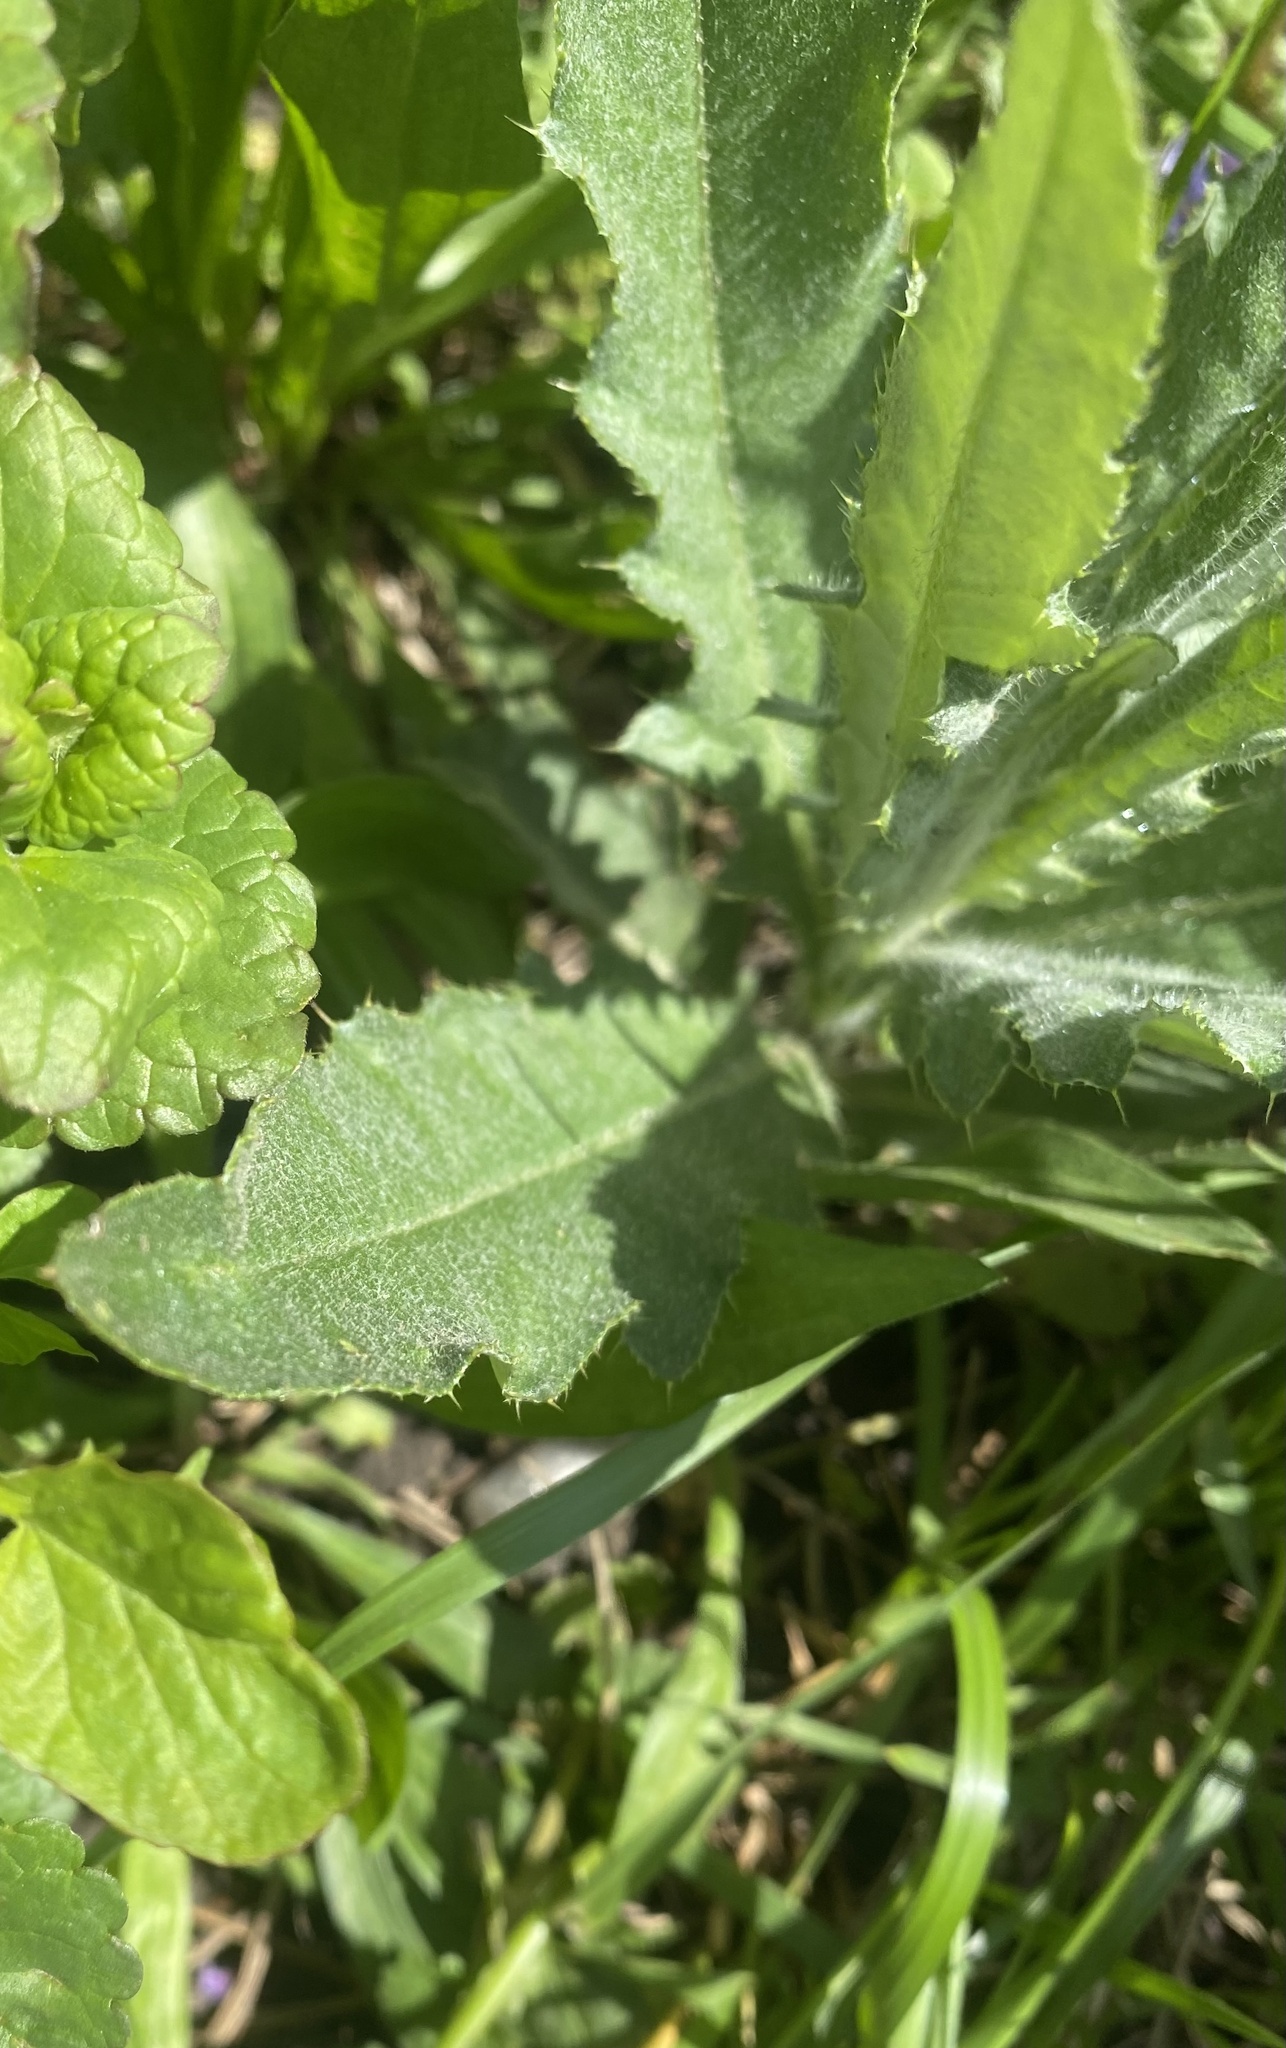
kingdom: Plantae
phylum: Tracheophyta
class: Magnoliopsida
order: Asterales
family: Asteraceae
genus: Cirsium
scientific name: Cirsium arvense
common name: Creeping thistle
